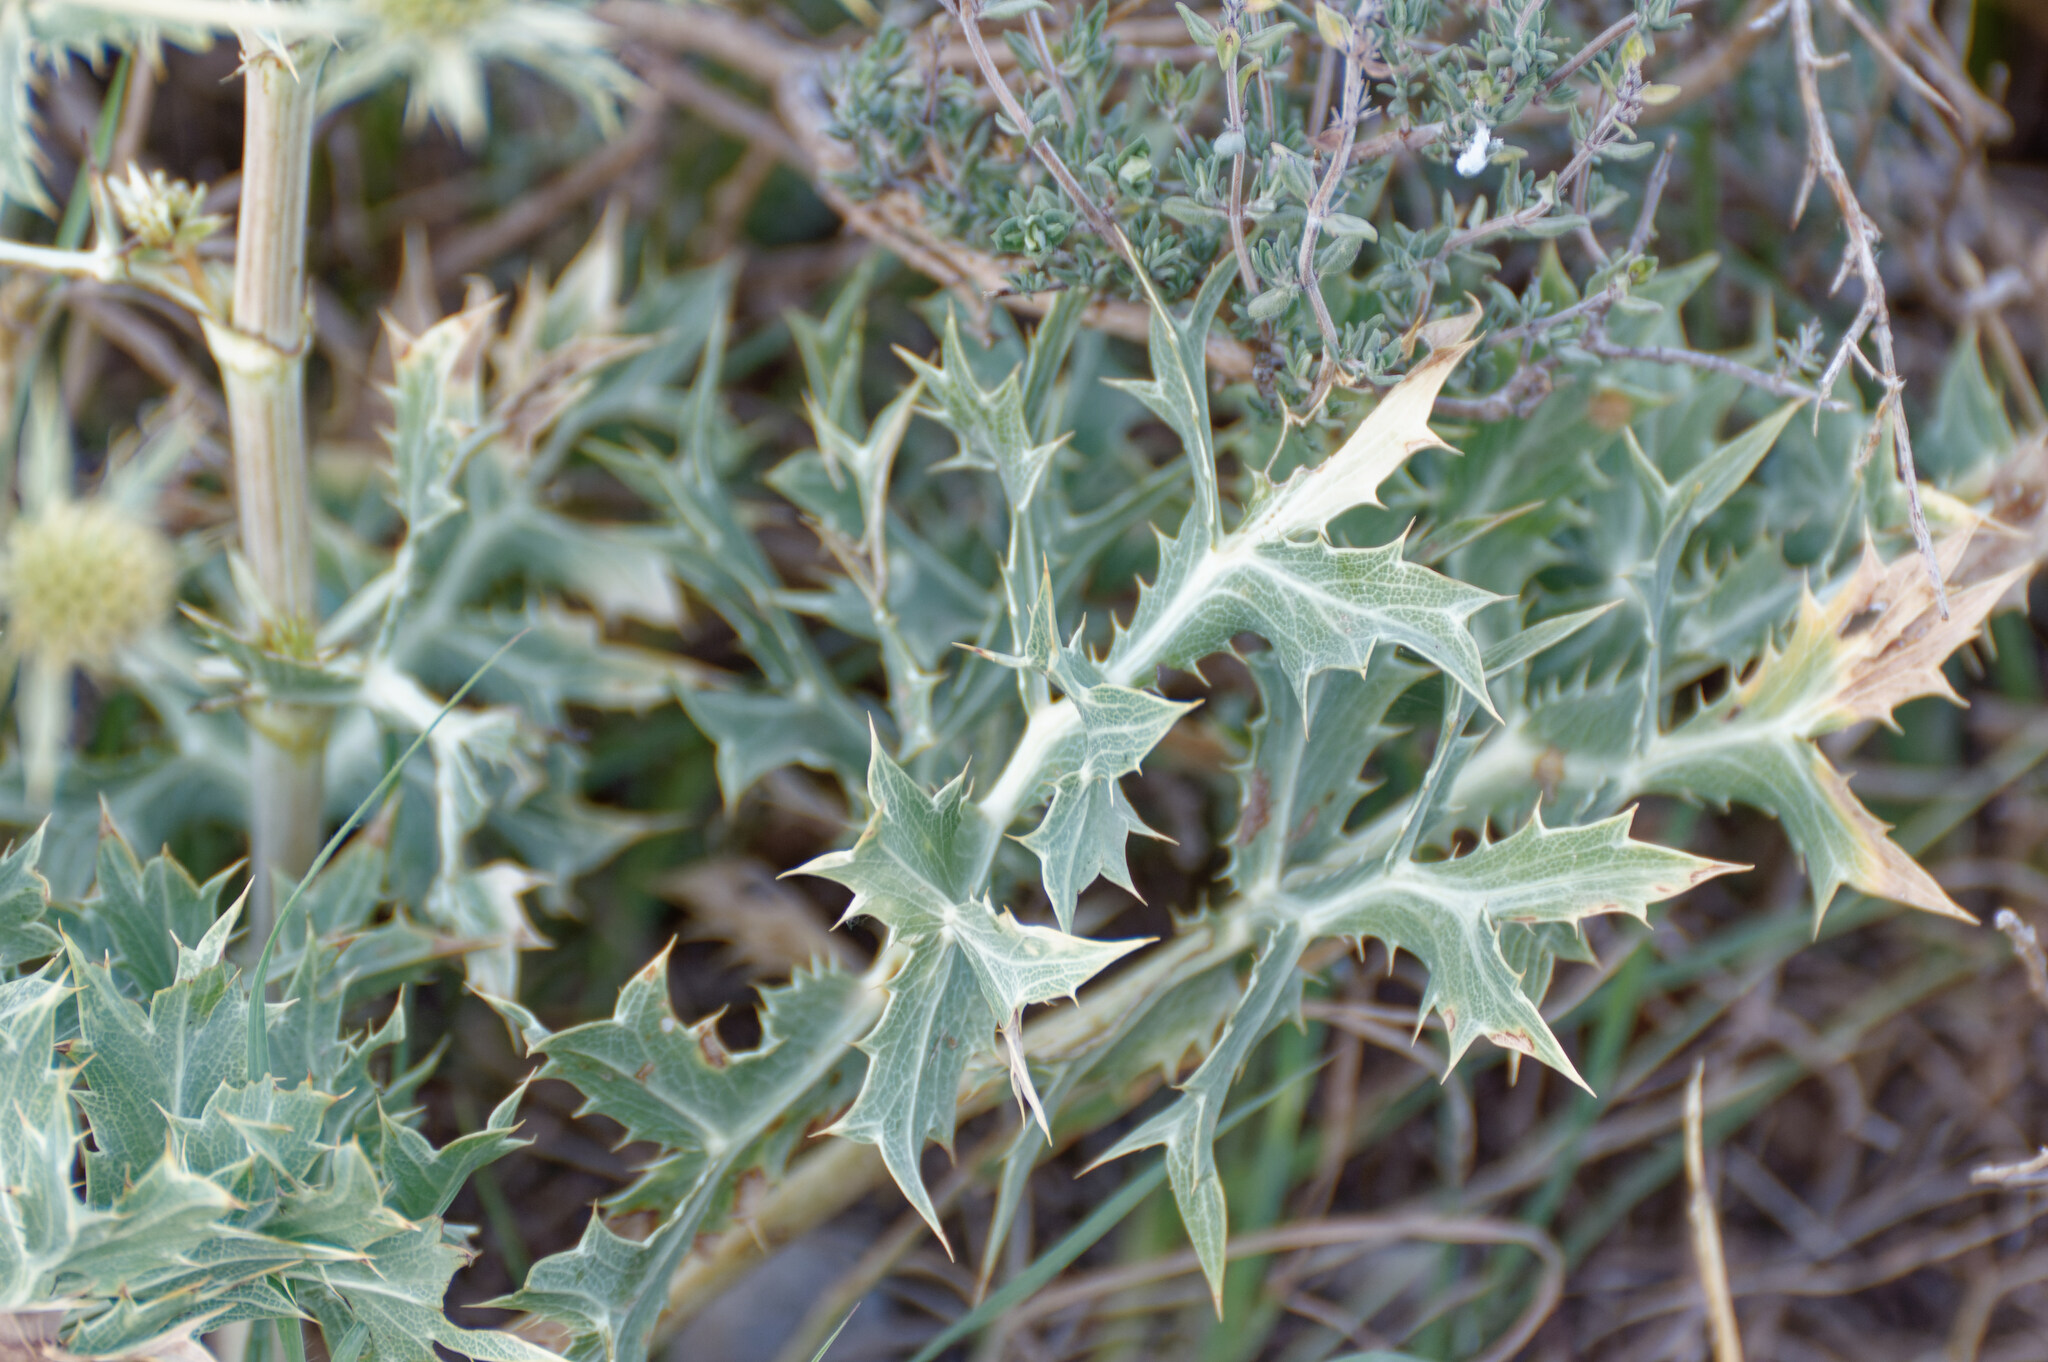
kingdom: Plantae
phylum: Tracheophyta
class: Magnoliopsida
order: Apiales
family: Apiaceae
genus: Eryngium
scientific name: Eryngium campestre
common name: Field eryngo
